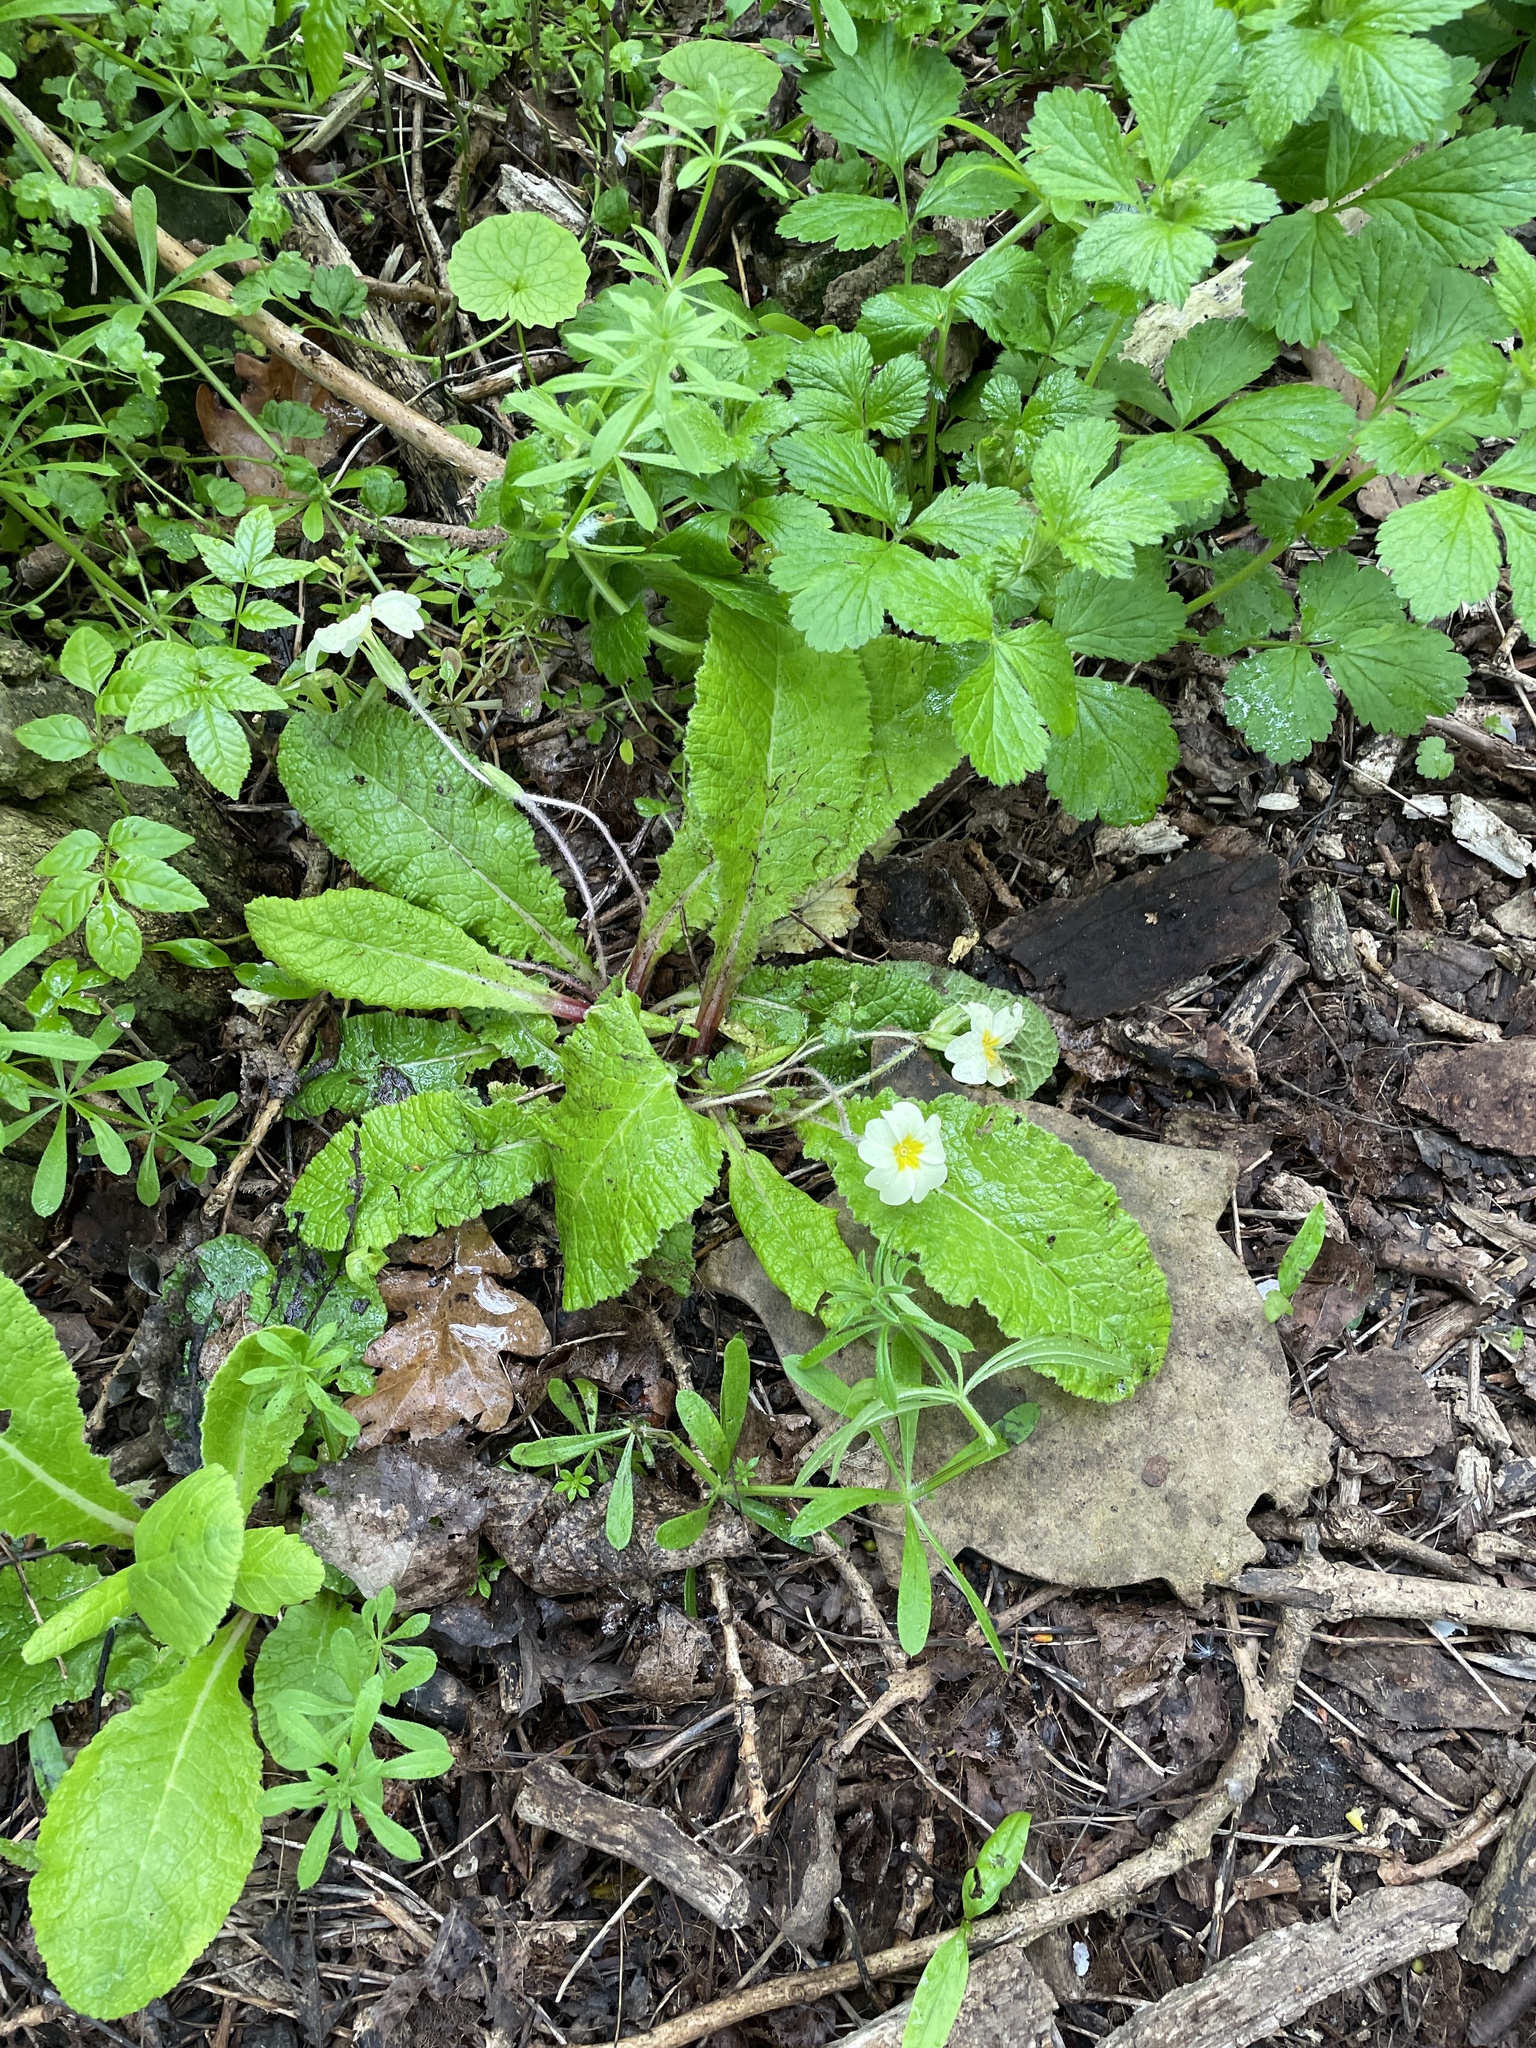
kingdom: Plantae
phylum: Tracheophyta
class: Magnoliopsida
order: Ericales
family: Primulaceae
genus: Primula
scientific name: Primula vulgaris
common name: Primrose
